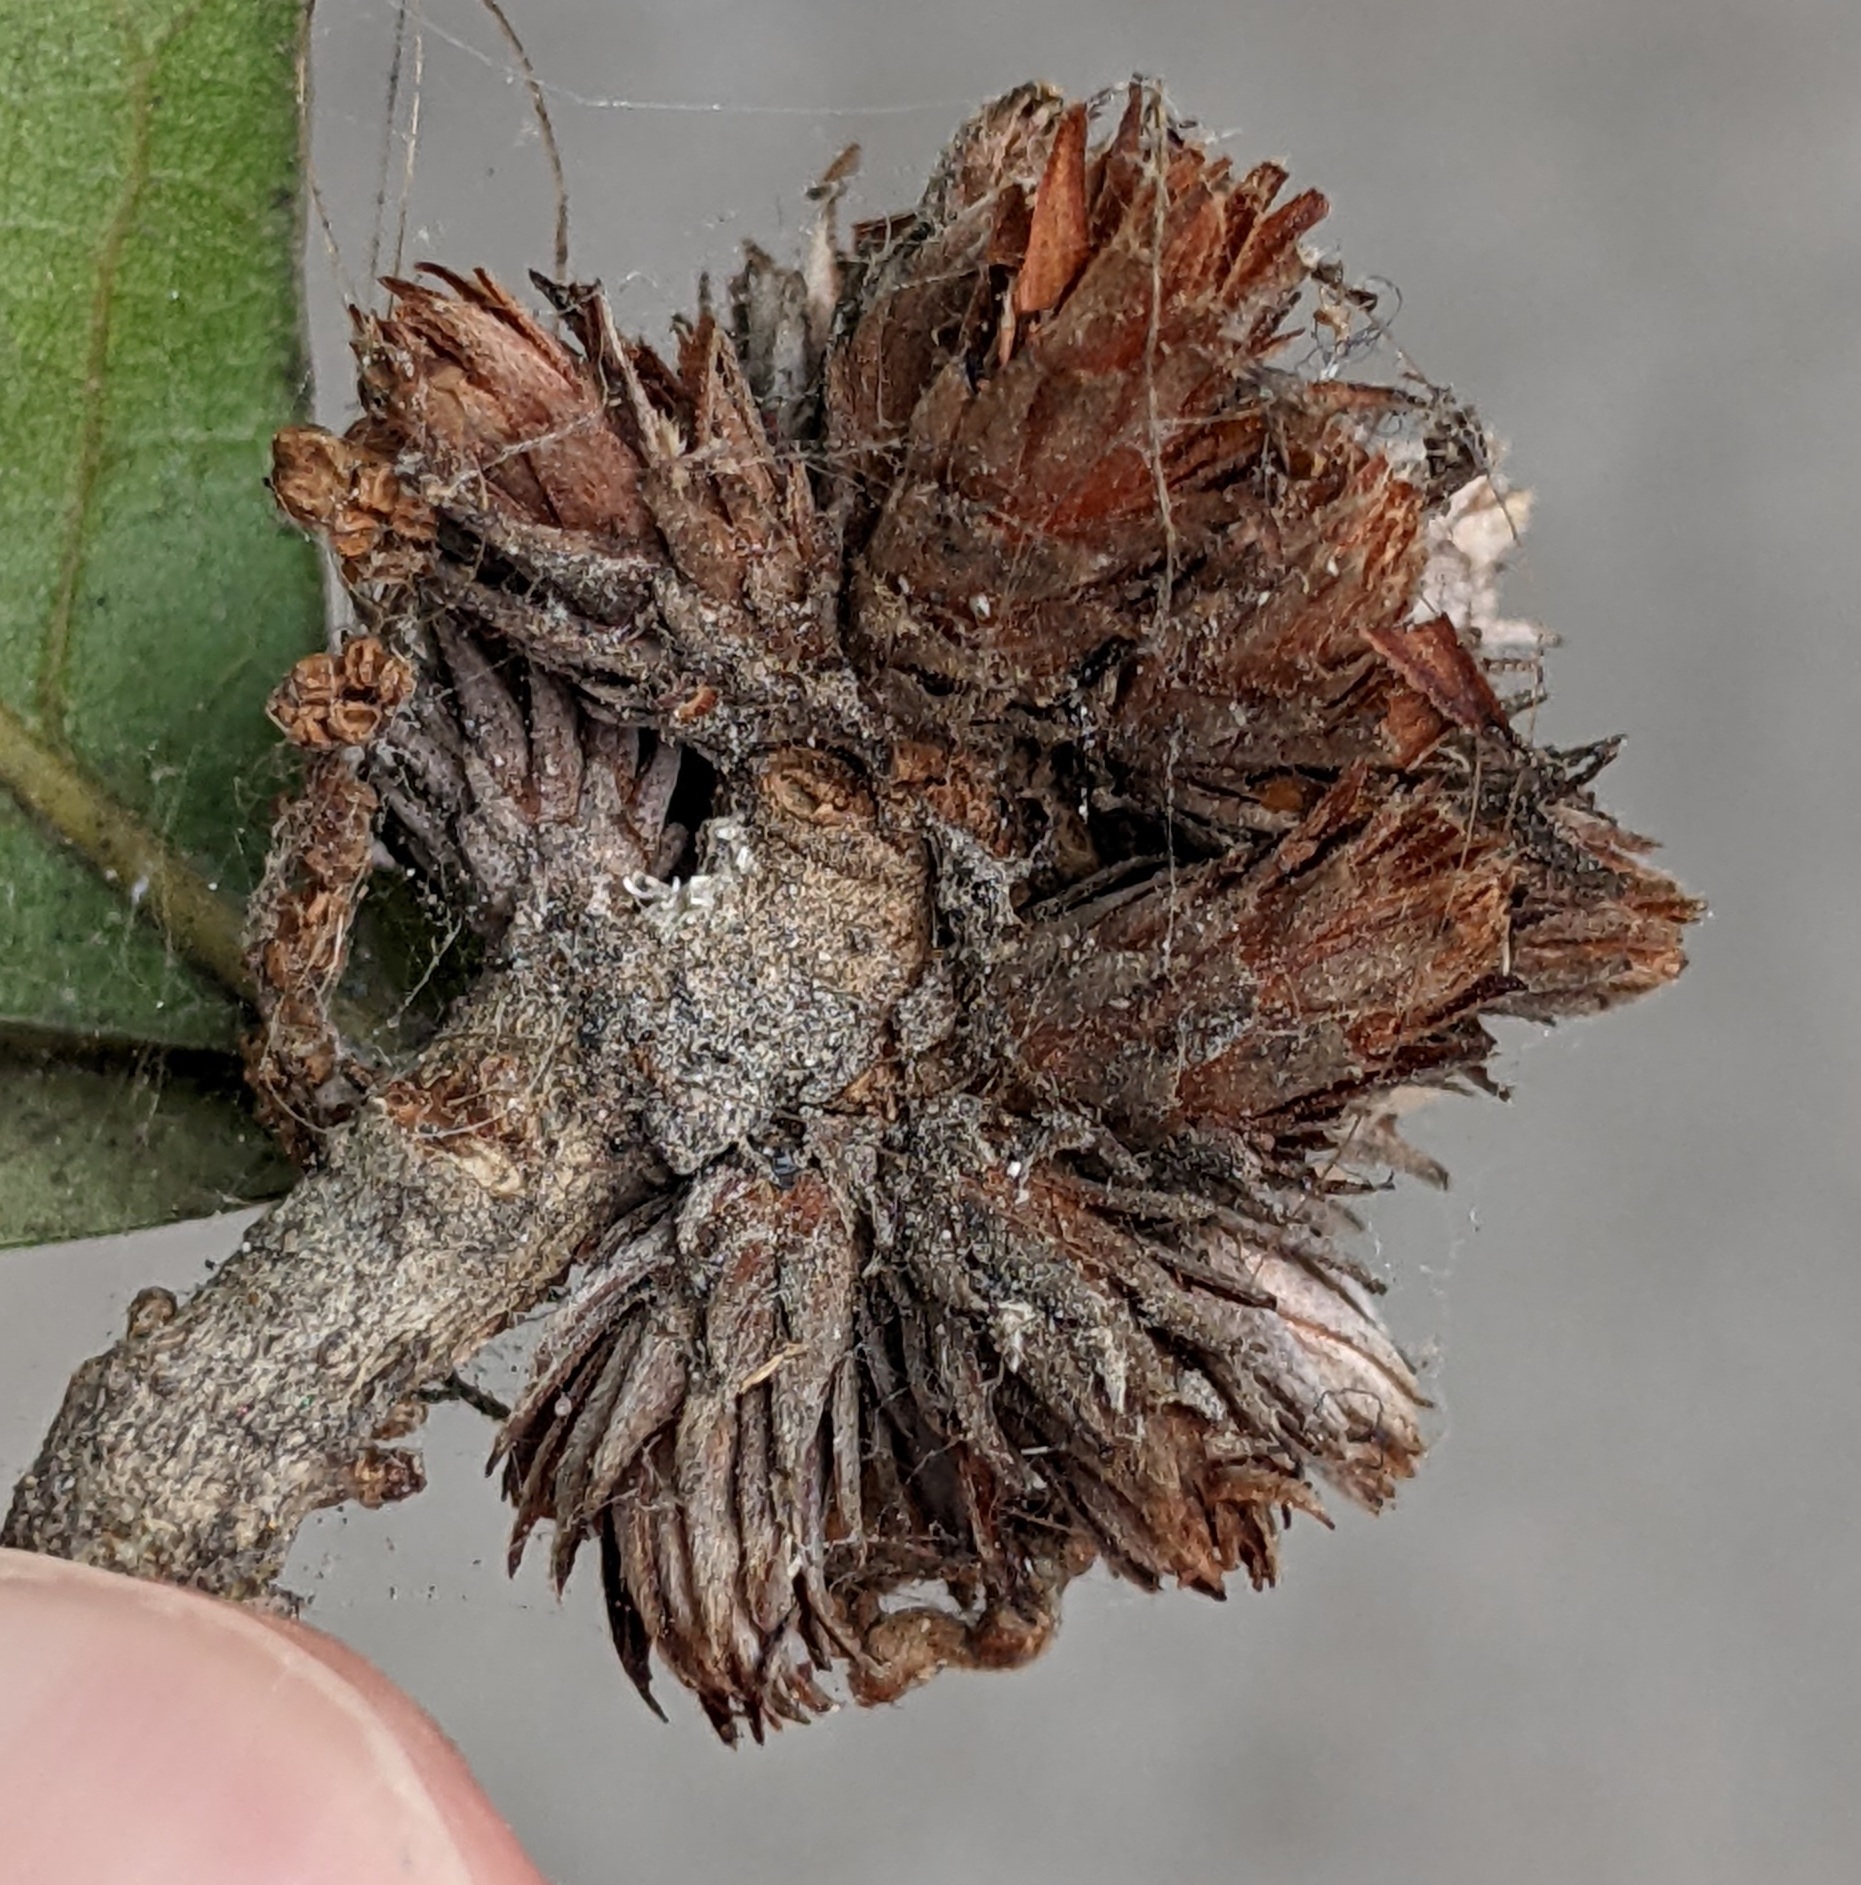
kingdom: Animalia
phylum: Arthropoda
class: Insecta
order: Diptera
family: Cecidomyiidae
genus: Arnoldiola
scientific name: Arnoldiola atra
